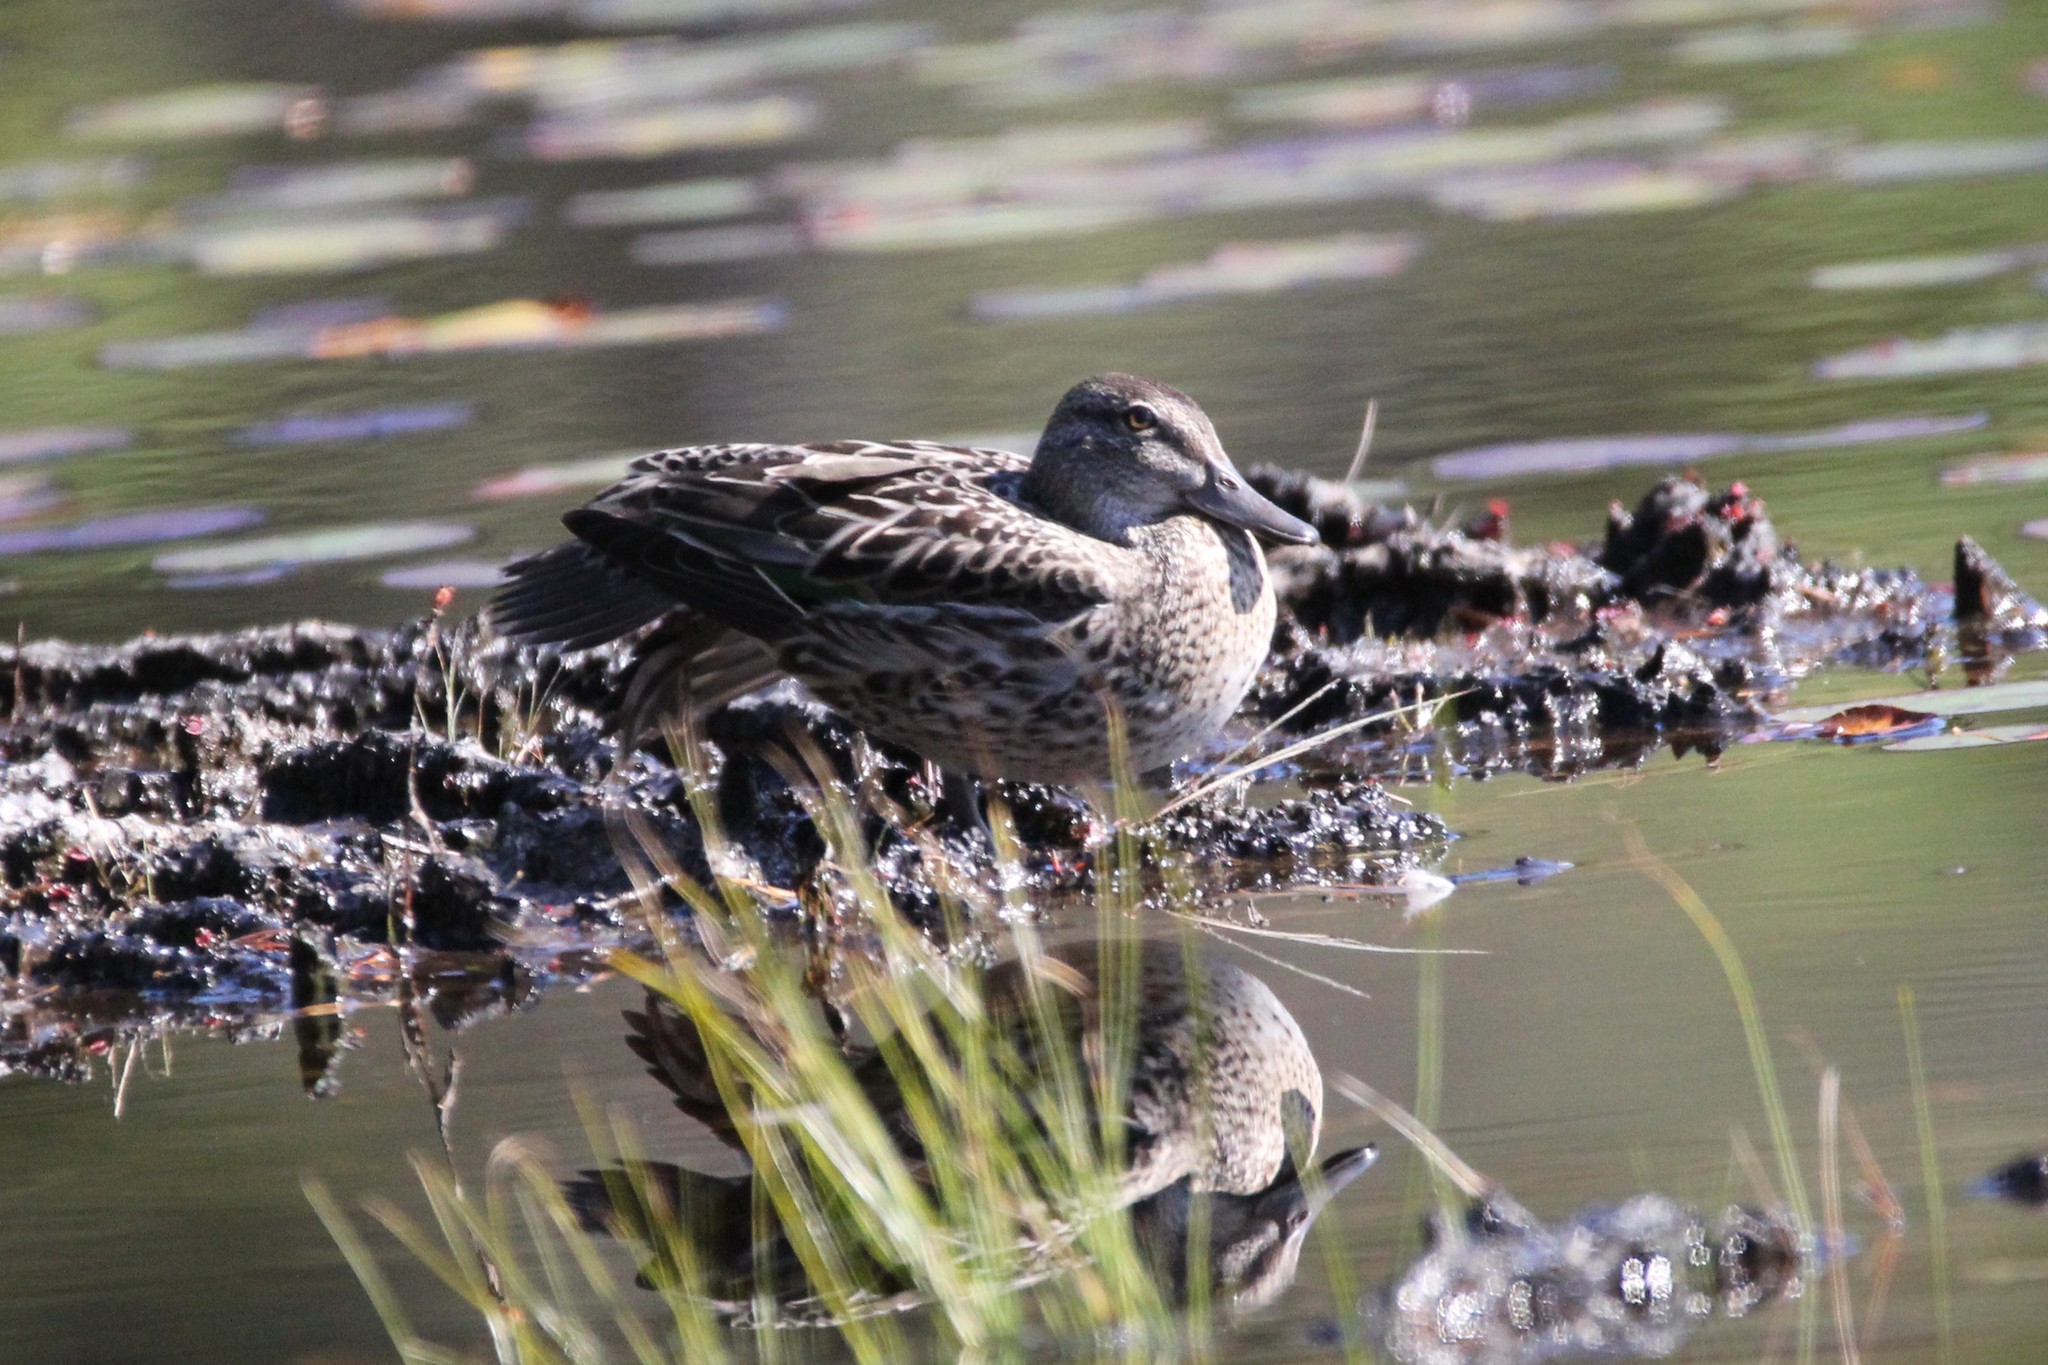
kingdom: Animalia
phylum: Chordata
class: Aves
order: Anseriformes
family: Anatidae
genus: Anas
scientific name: Anas crecca
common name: Eurasian teal
